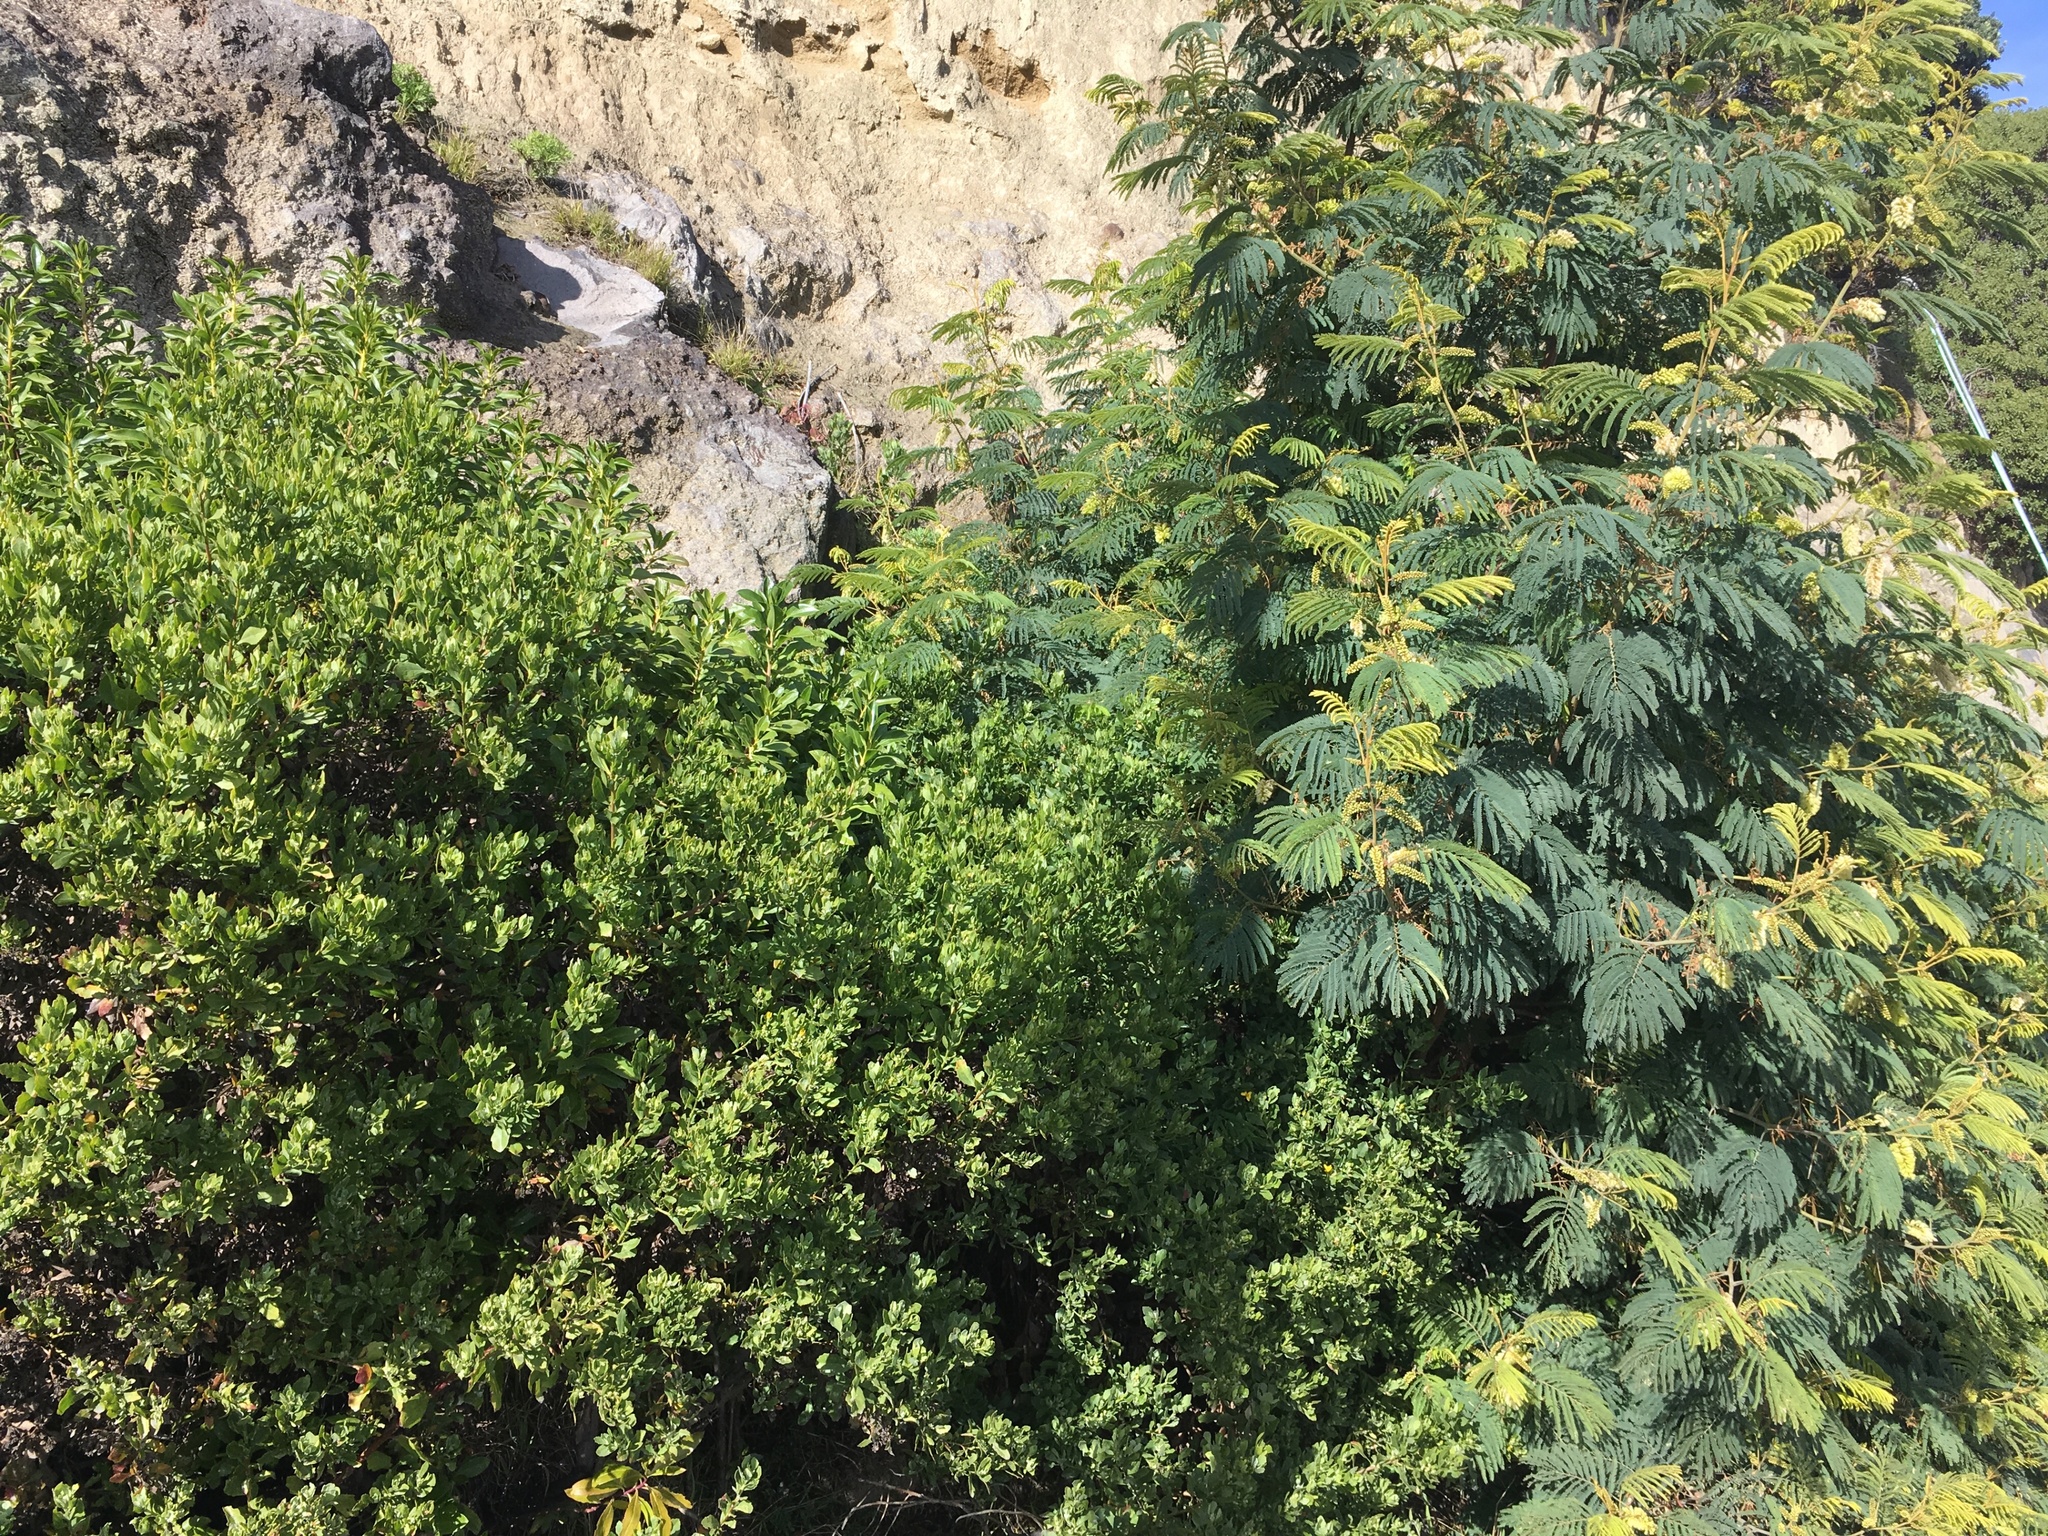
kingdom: Plantae
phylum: Tracheophyta
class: Magnoliopsida
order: Asterales
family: Asteraceae
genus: Osteospermum
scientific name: Osteospermum moniliferum
